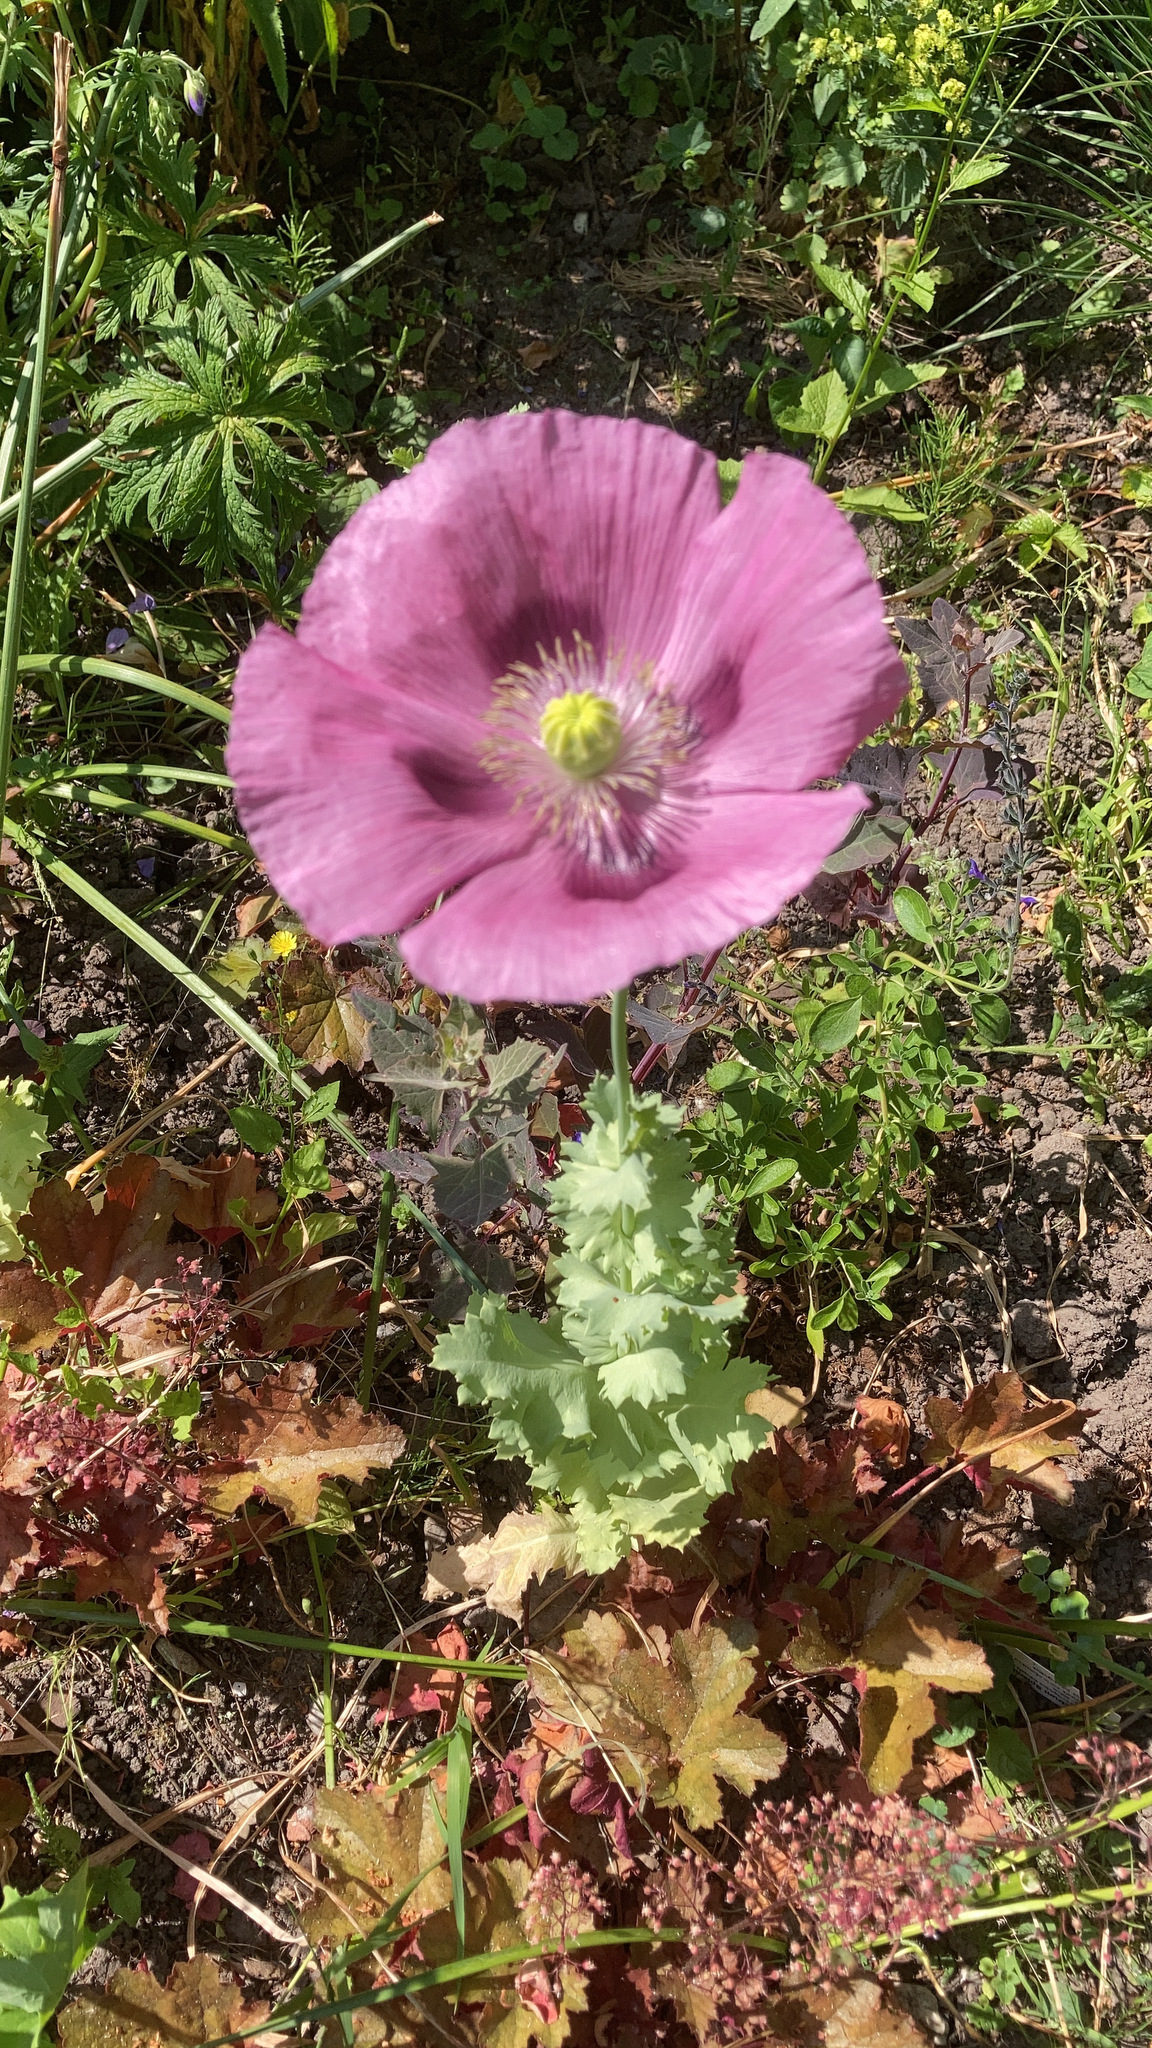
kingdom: Plantae
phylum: Tracheophyta
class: Magnoliopsida
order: Ranunculales
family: Papaveraceae
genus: Papaver
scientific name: Papaver somniferum
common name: Opium poppy
